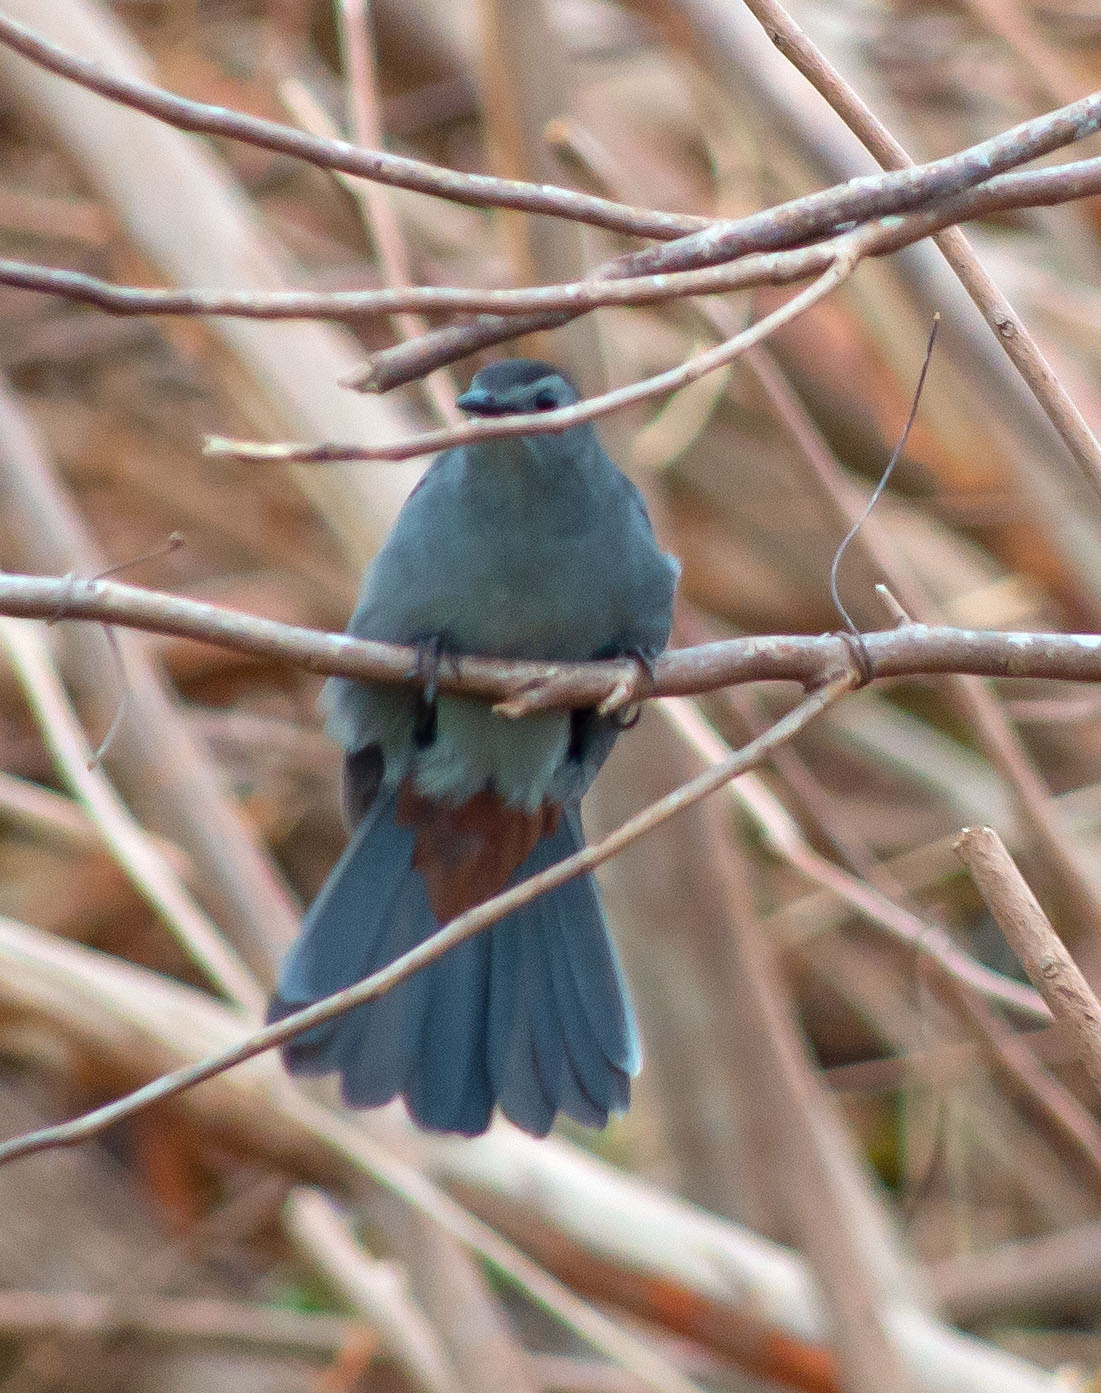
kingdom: Animalia
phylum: Chordata
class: Aves
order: Passeriformes
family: Mimidae
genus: Dumetella
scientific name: Dumetella carolinensis
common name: Gray catbird
